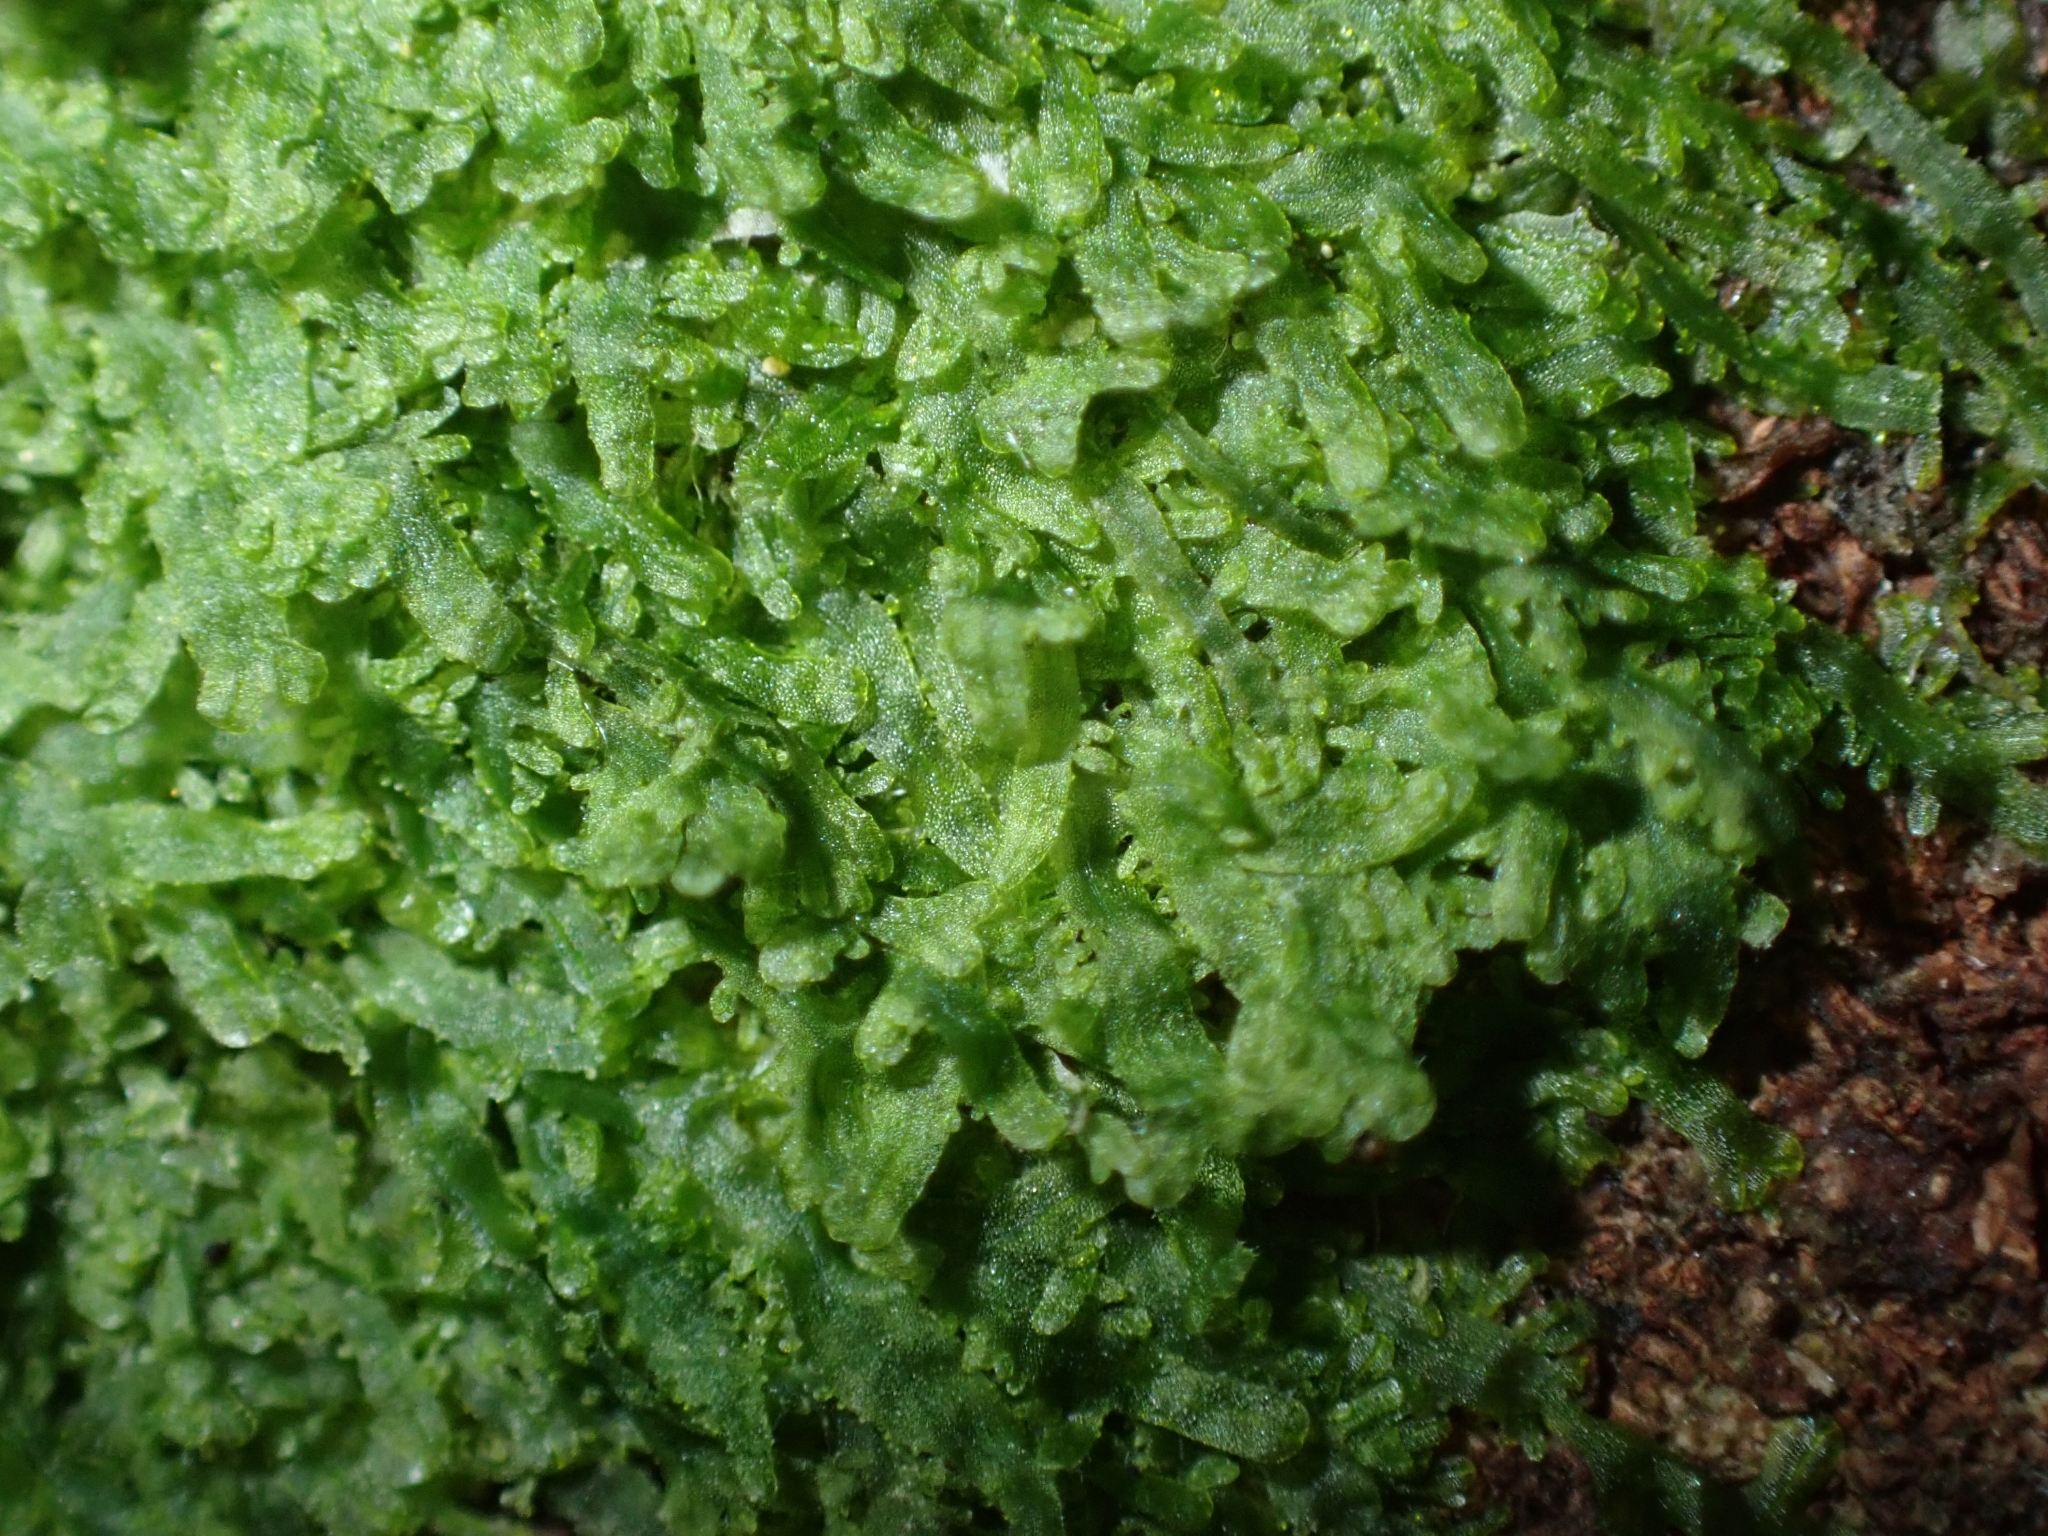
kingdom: Plantae
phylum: Marchantiophyta
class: Jungermanniopsida
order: Metzgeriales
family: Metzgeriaceae
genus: Metzgeria
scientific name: Metzgeria furcata
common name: Forked veilwort
